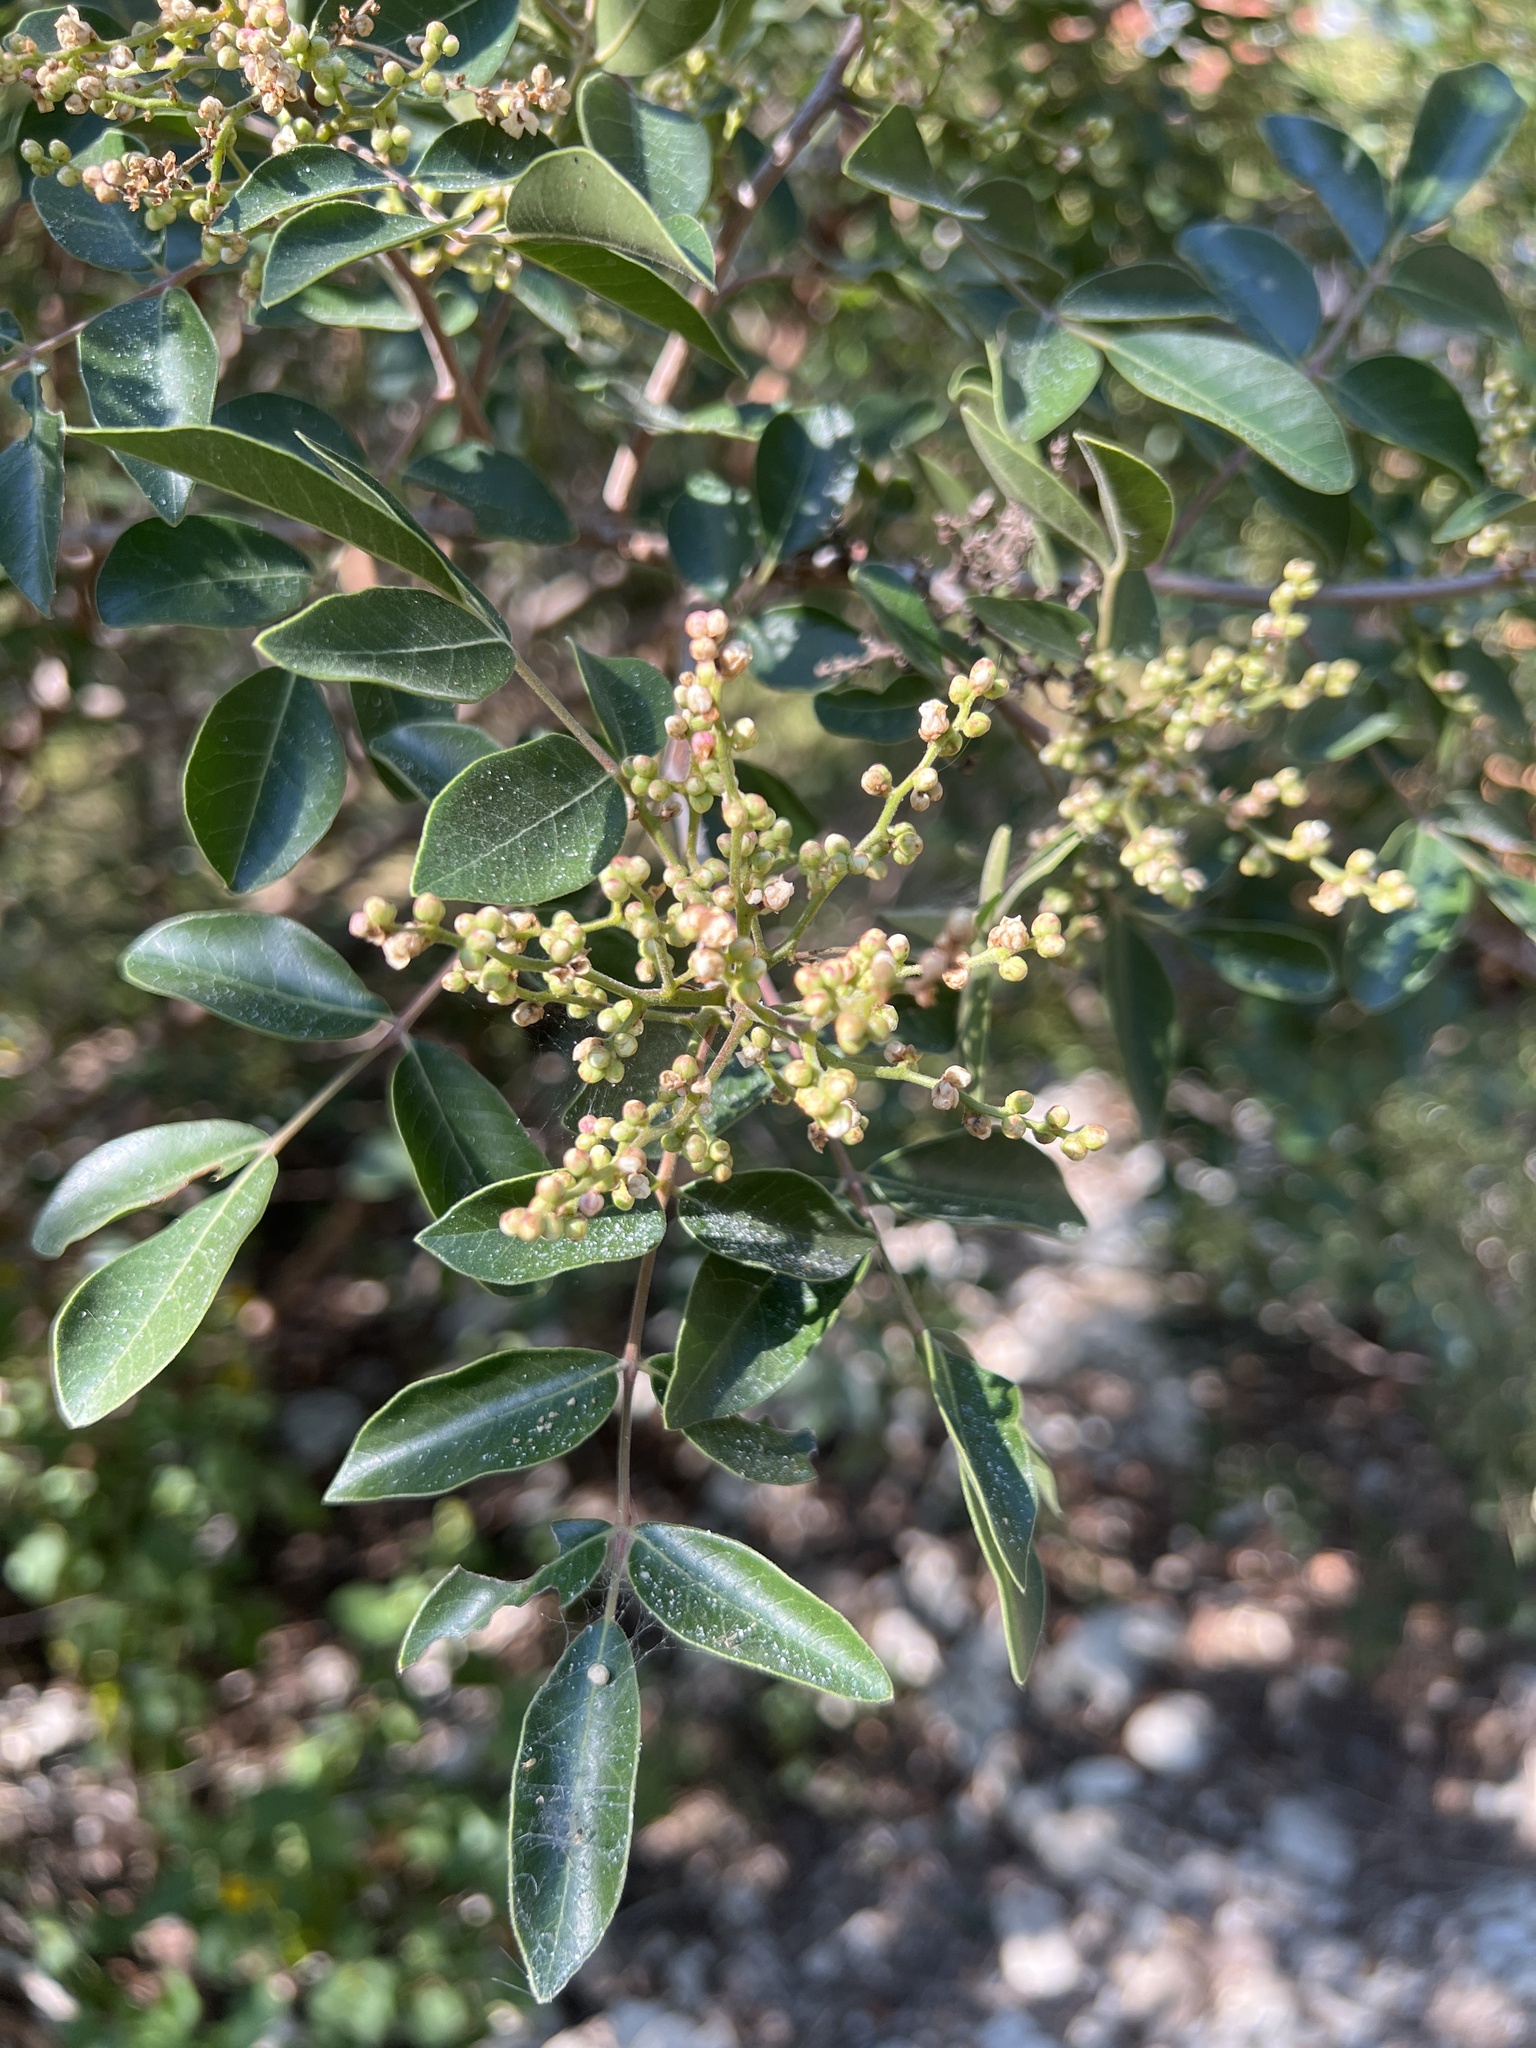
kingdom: Plantae
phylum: Tracheophyta
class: Magnoliopsida
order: Sapindales
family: Anacardiaceae
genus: Rhus
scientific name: Rhus virens
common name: Evergreen sumac
